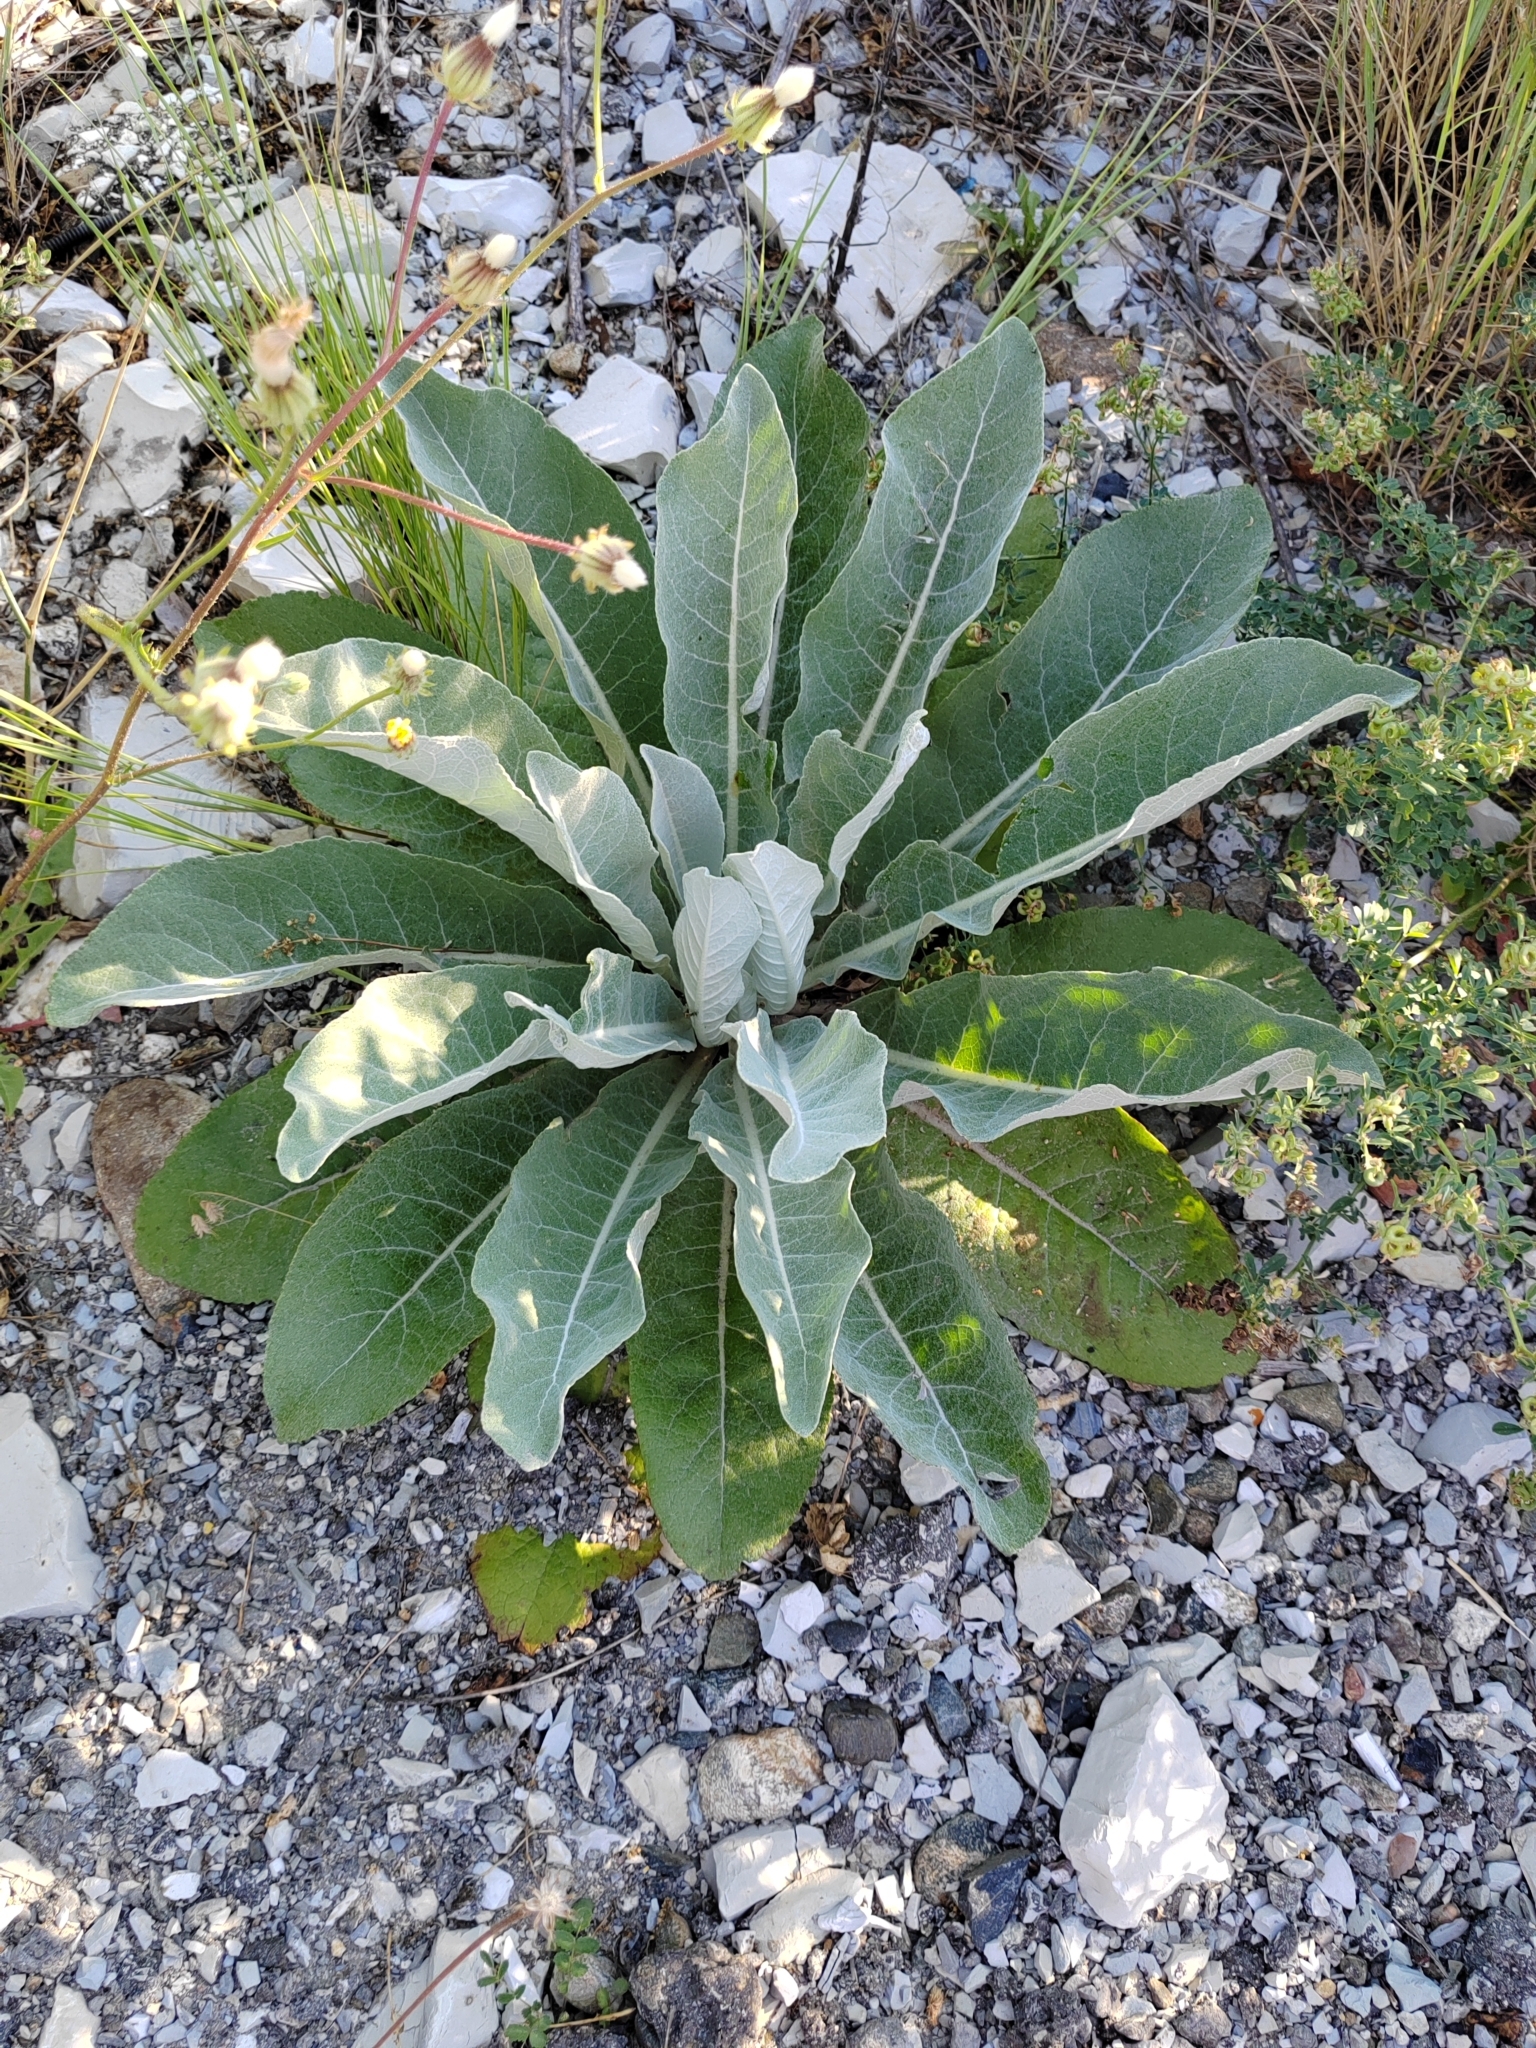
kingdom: Plantae
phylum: Tracheophyta
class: Magnoliopsida
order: Lamiales
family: Scrophulariaceae
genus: Verbascum
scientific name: Verbascum gnaphalodes
